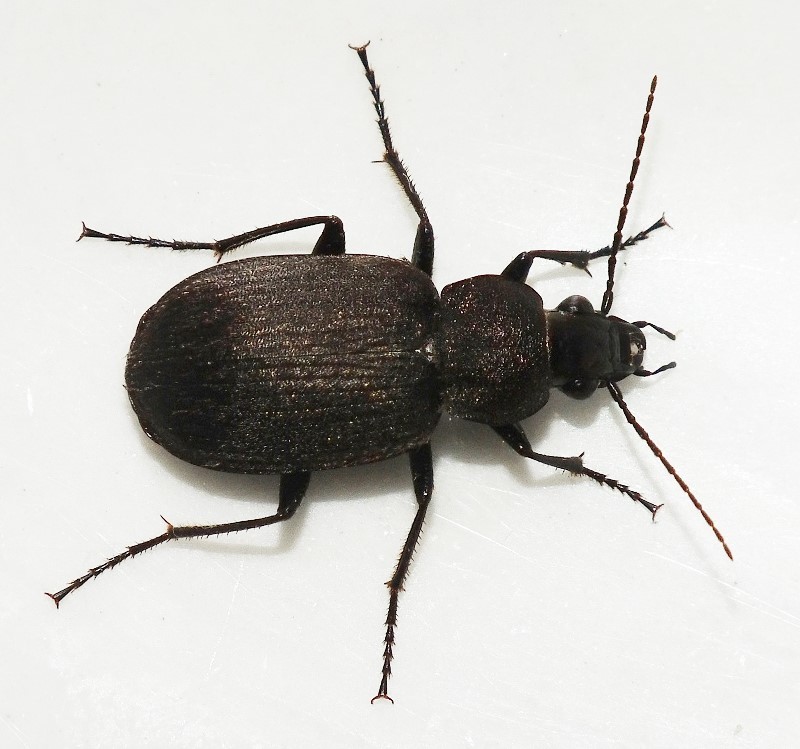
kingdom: Animalia
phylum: Arthropoda
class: Insecta
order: Coleoptera
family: Carabidae
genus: Chlaenius
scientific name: Chlaenius tristis
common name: Black night-runner
